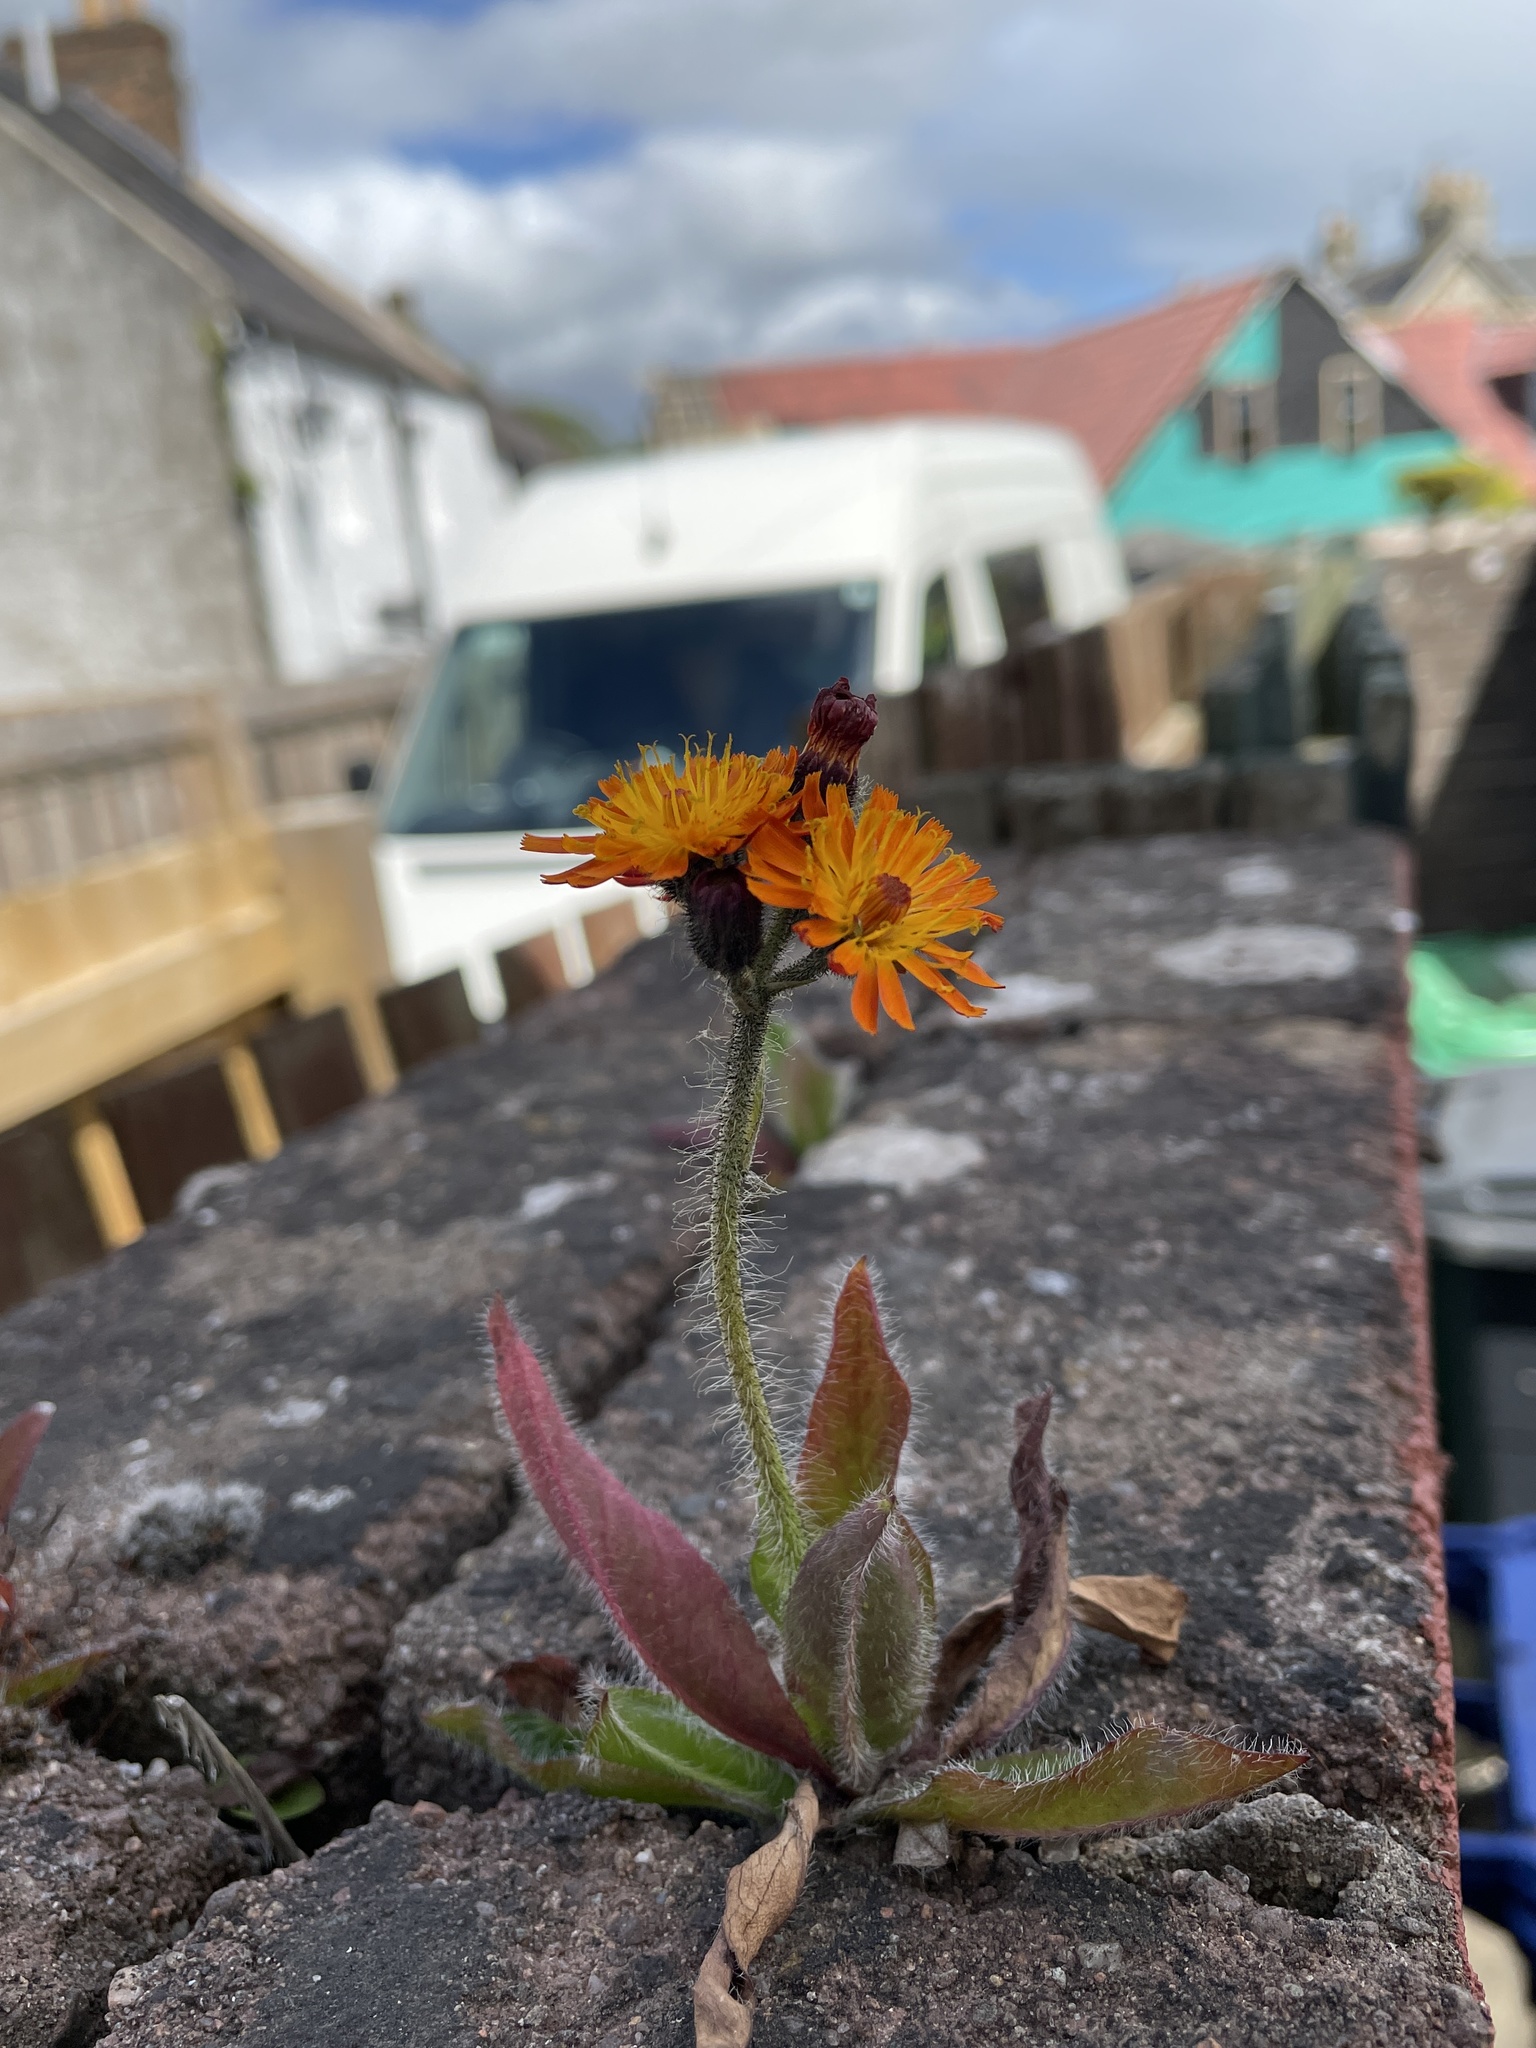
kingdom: Plantae
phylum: Tracheophyta
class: Magnoliopsida
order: Asterales
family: Asteraceae
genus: Pilosella
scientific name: Pilosella aurantiaca
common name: Fox-and-cubs
